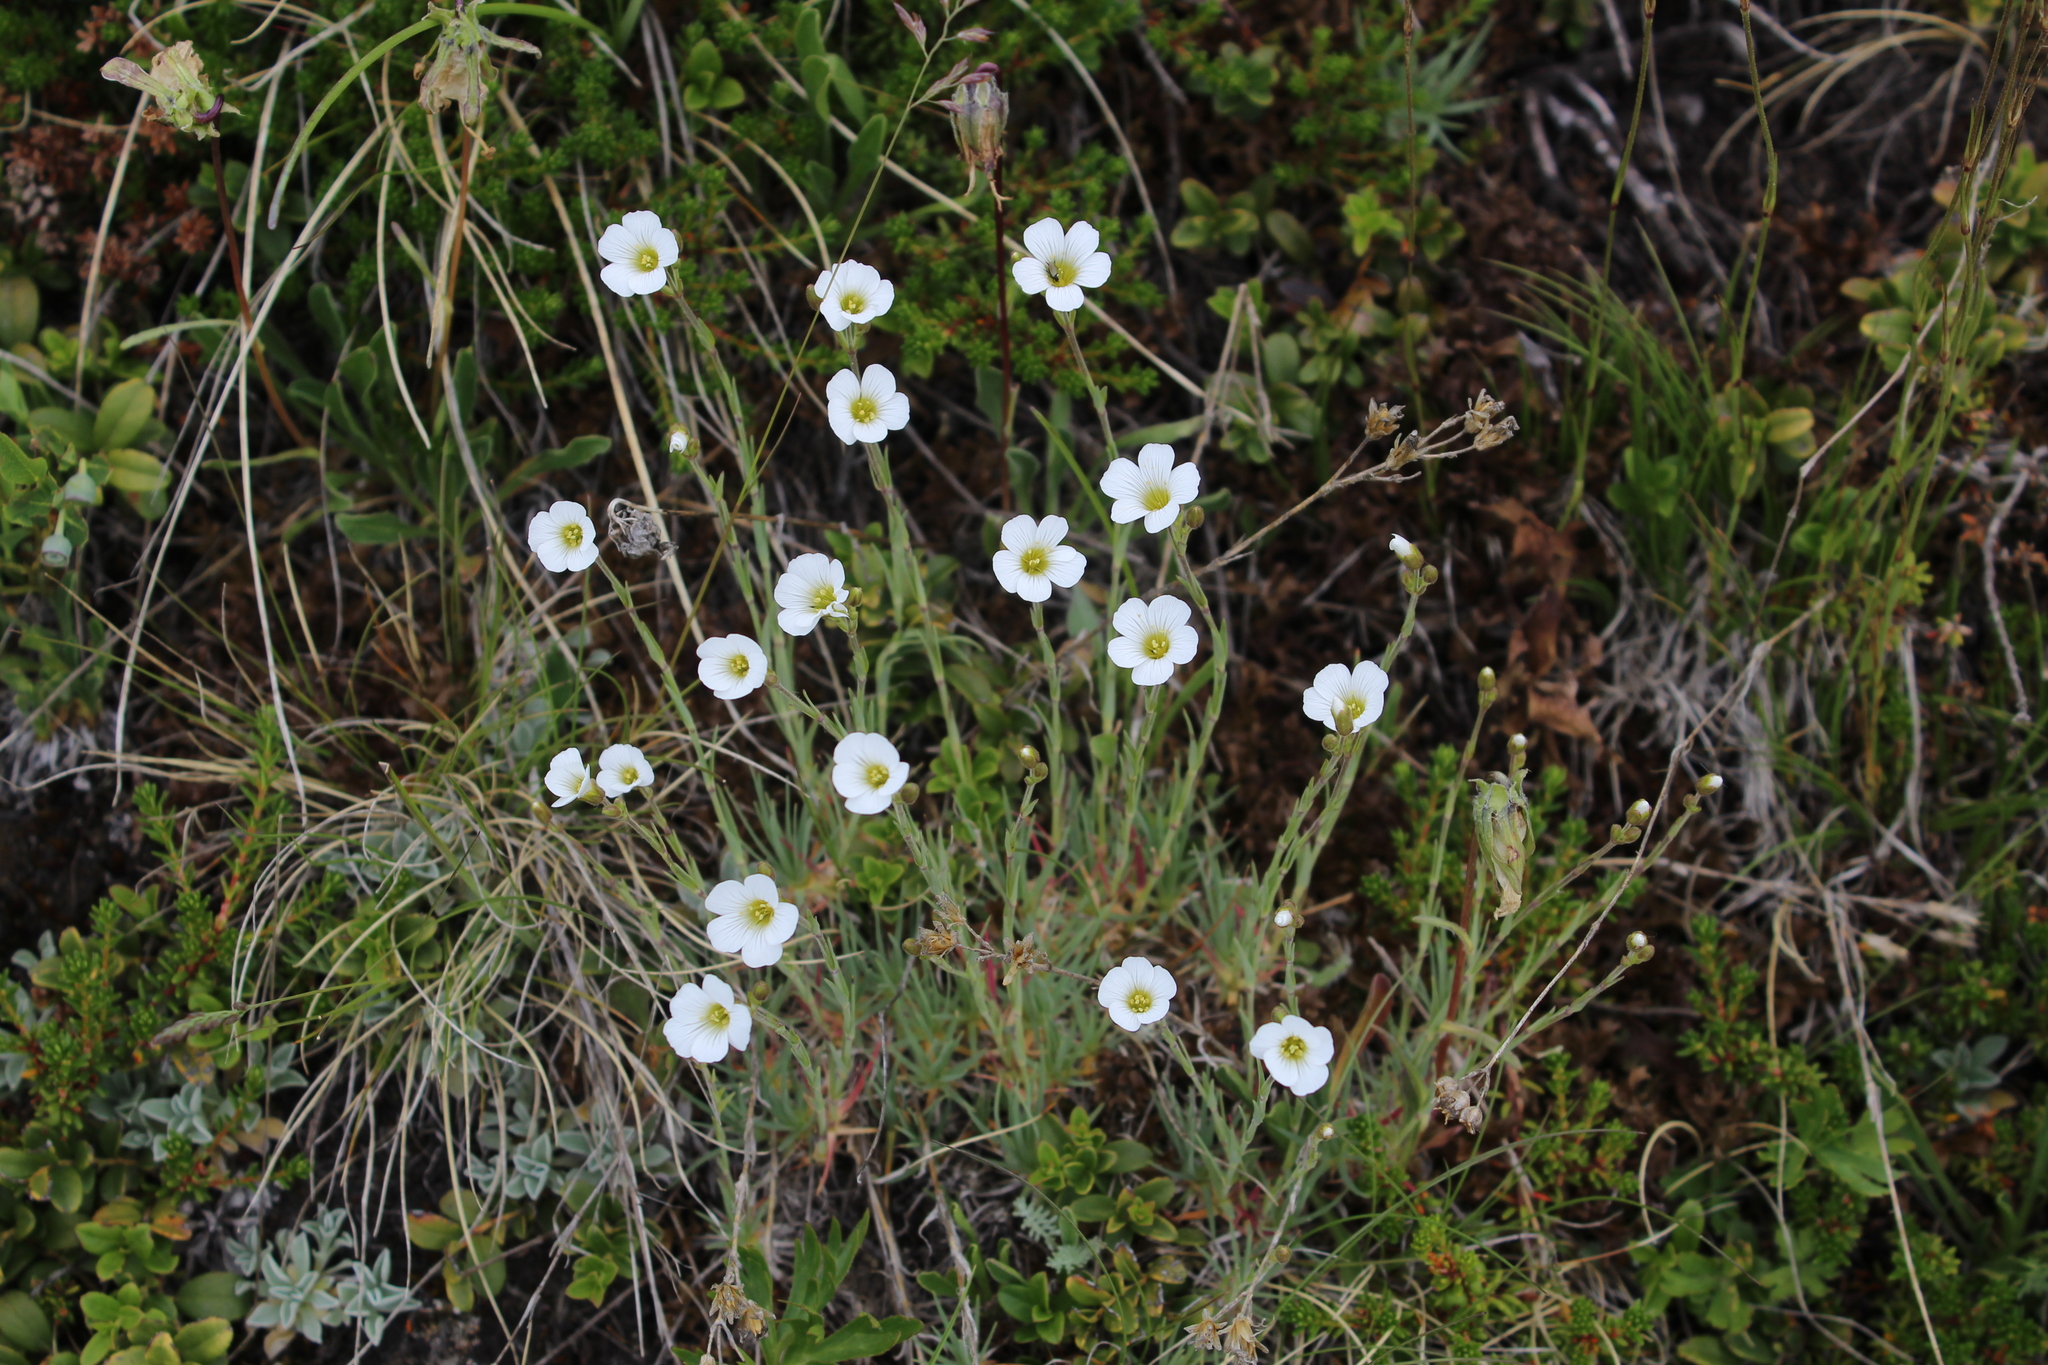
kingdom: Plantae
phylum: Tracheophyta
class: Magnoliopsida
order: Caryophyllales
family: Caryophyllaceae
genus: Cherleria
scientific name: Cherleria circassica
